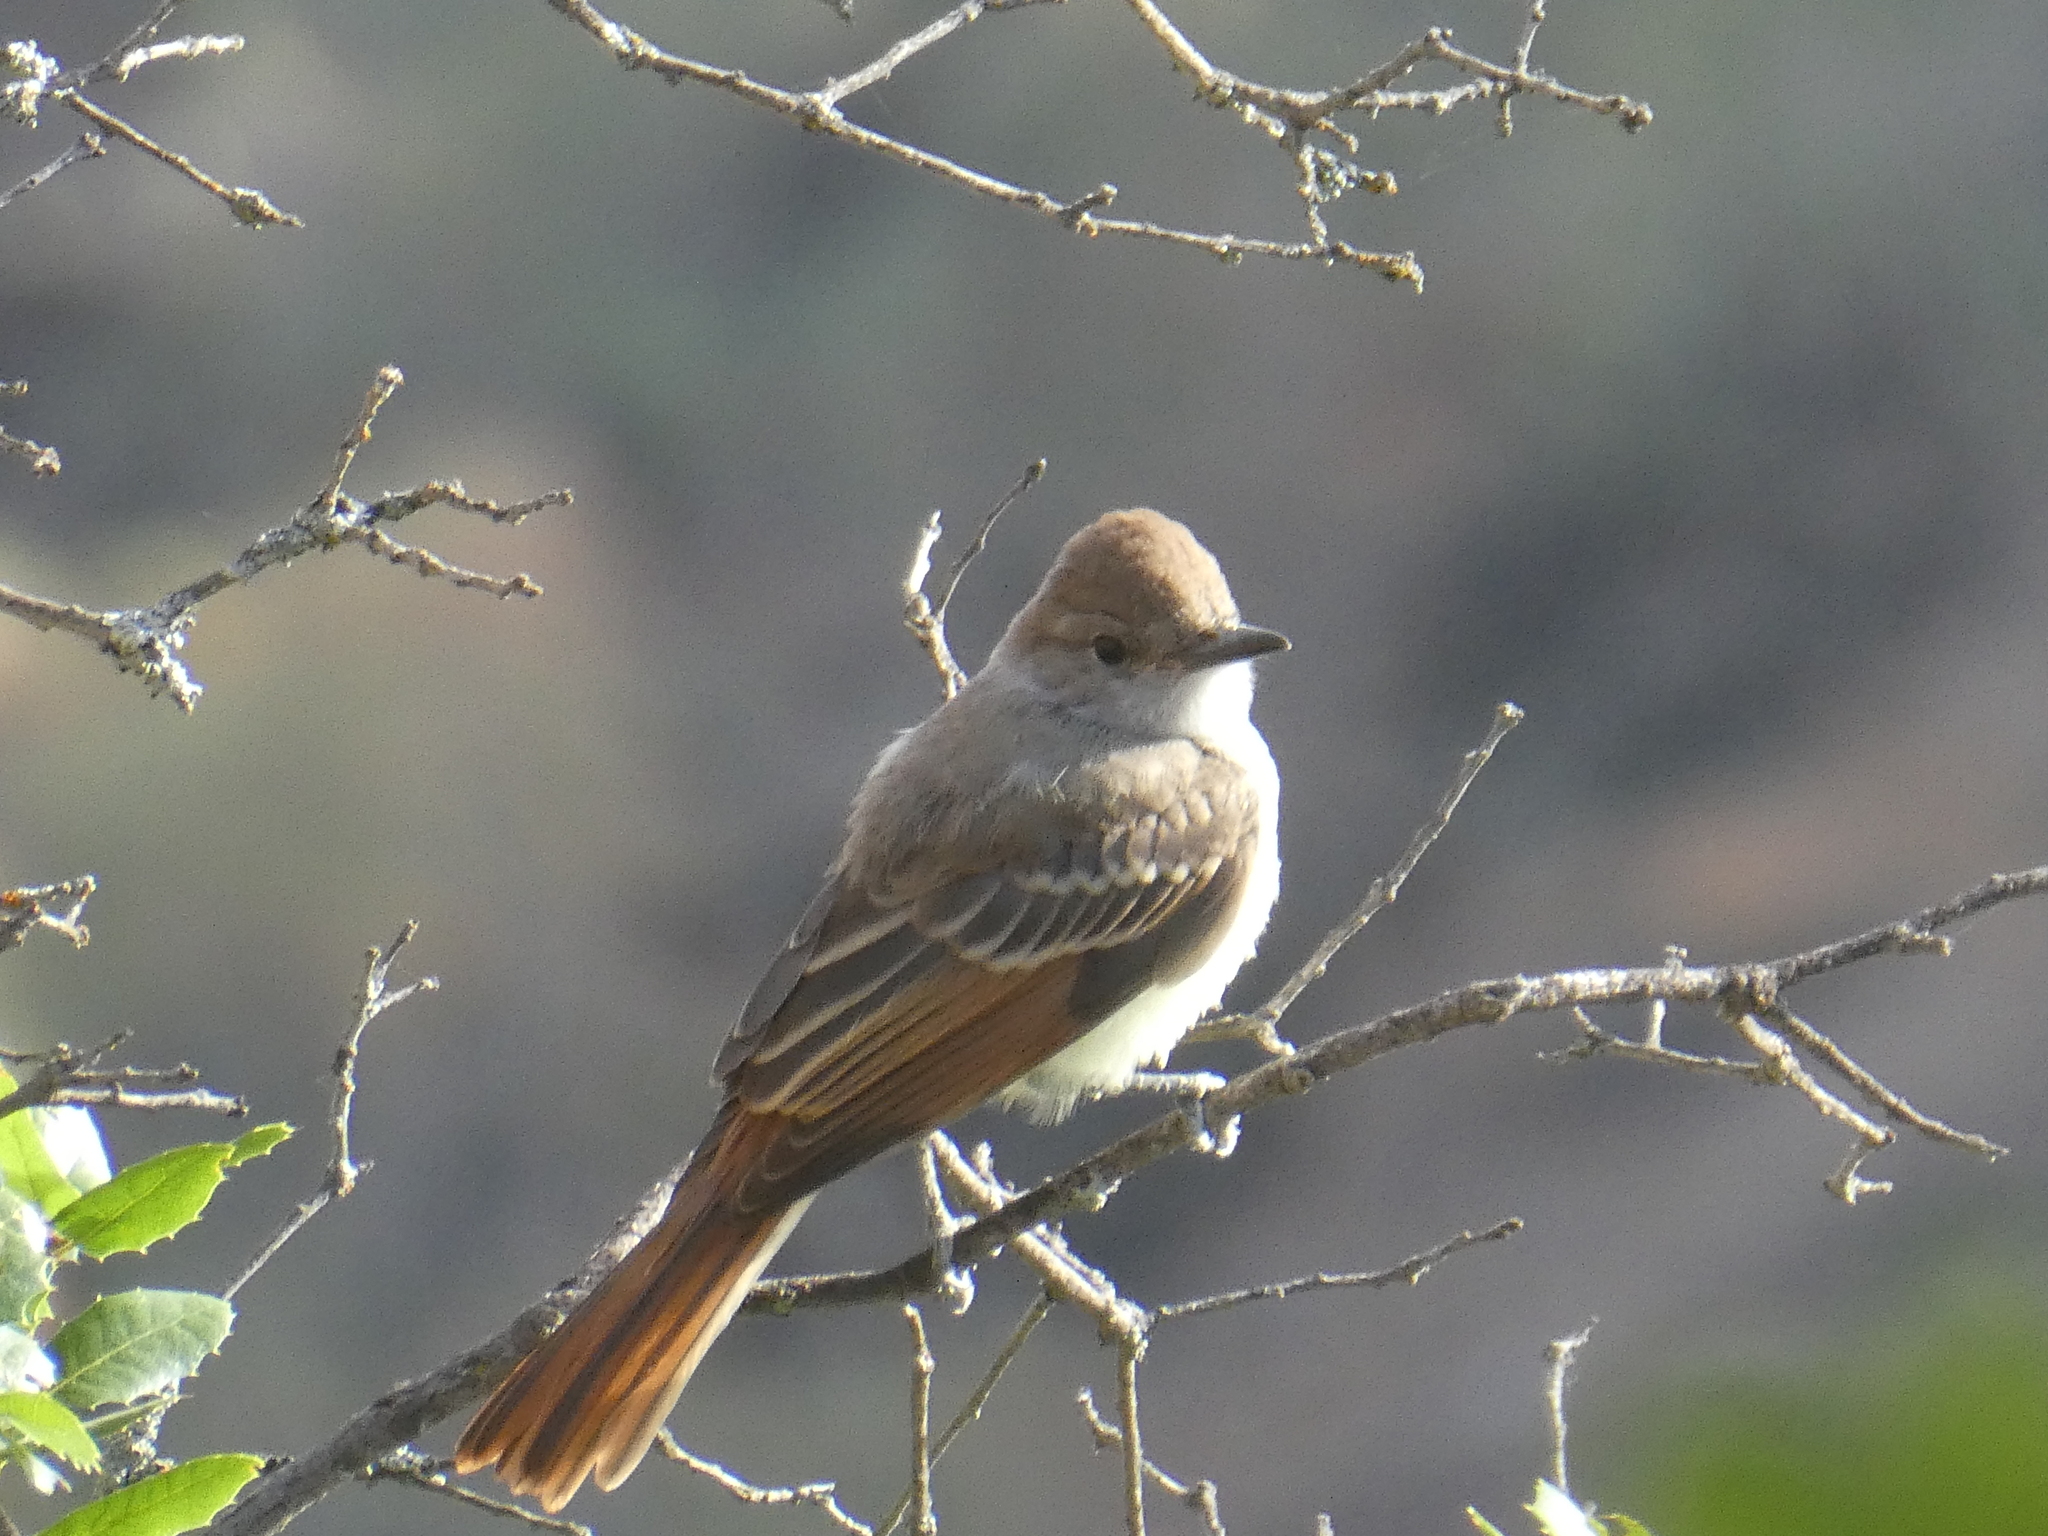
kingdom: Animalia
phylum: Chordata
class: Aves
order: Passeriformes
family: Tyrannidae
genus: Myiarchus
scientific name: Myiarchus cinerascens
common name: Ash-throated flycatcher
